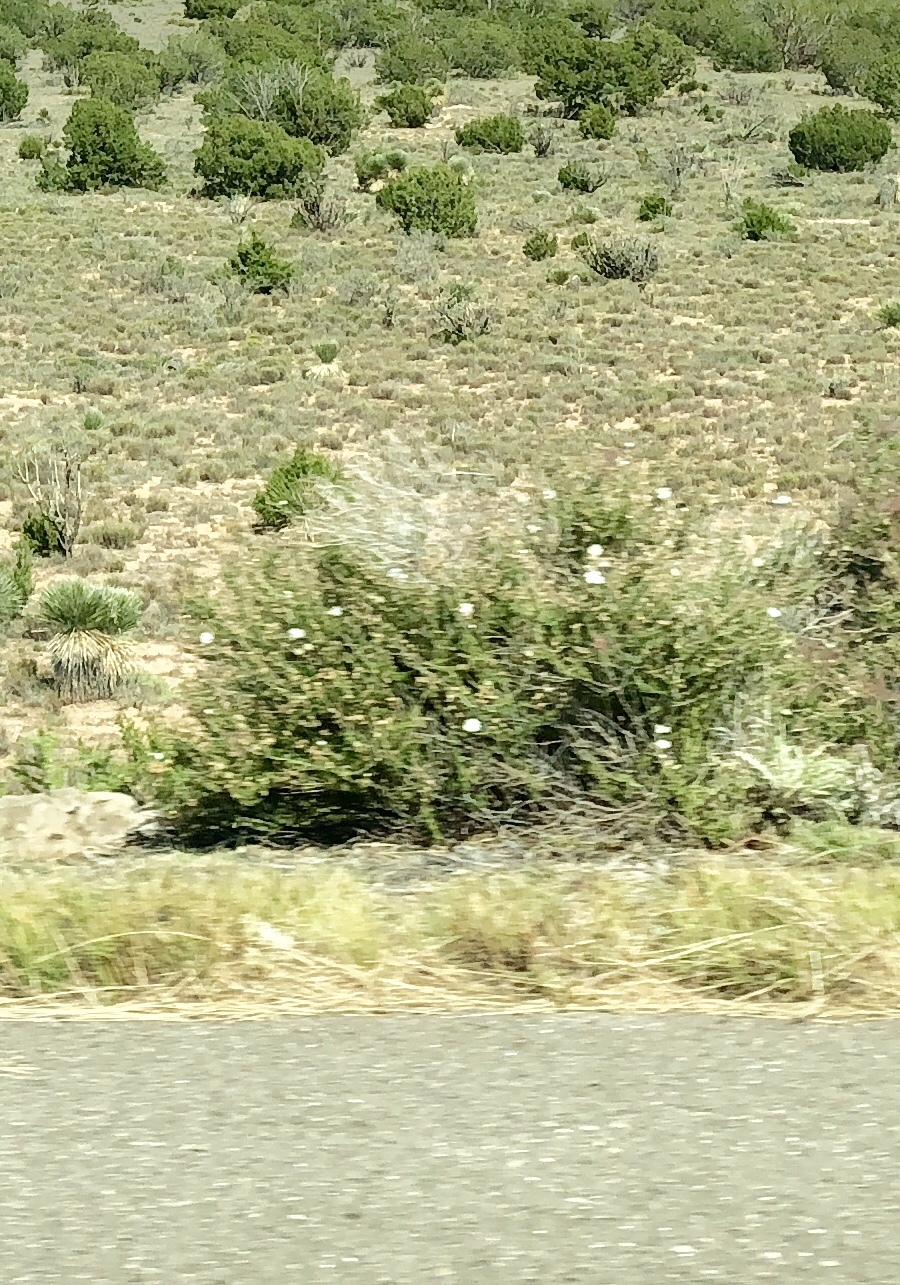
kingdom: Plantae
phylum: Tracheophyta
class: Magnoliopsida
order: Rosales
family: Rosaceae
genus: Fallugia
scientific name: Fallugia paradoxa
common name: Apache-plume
